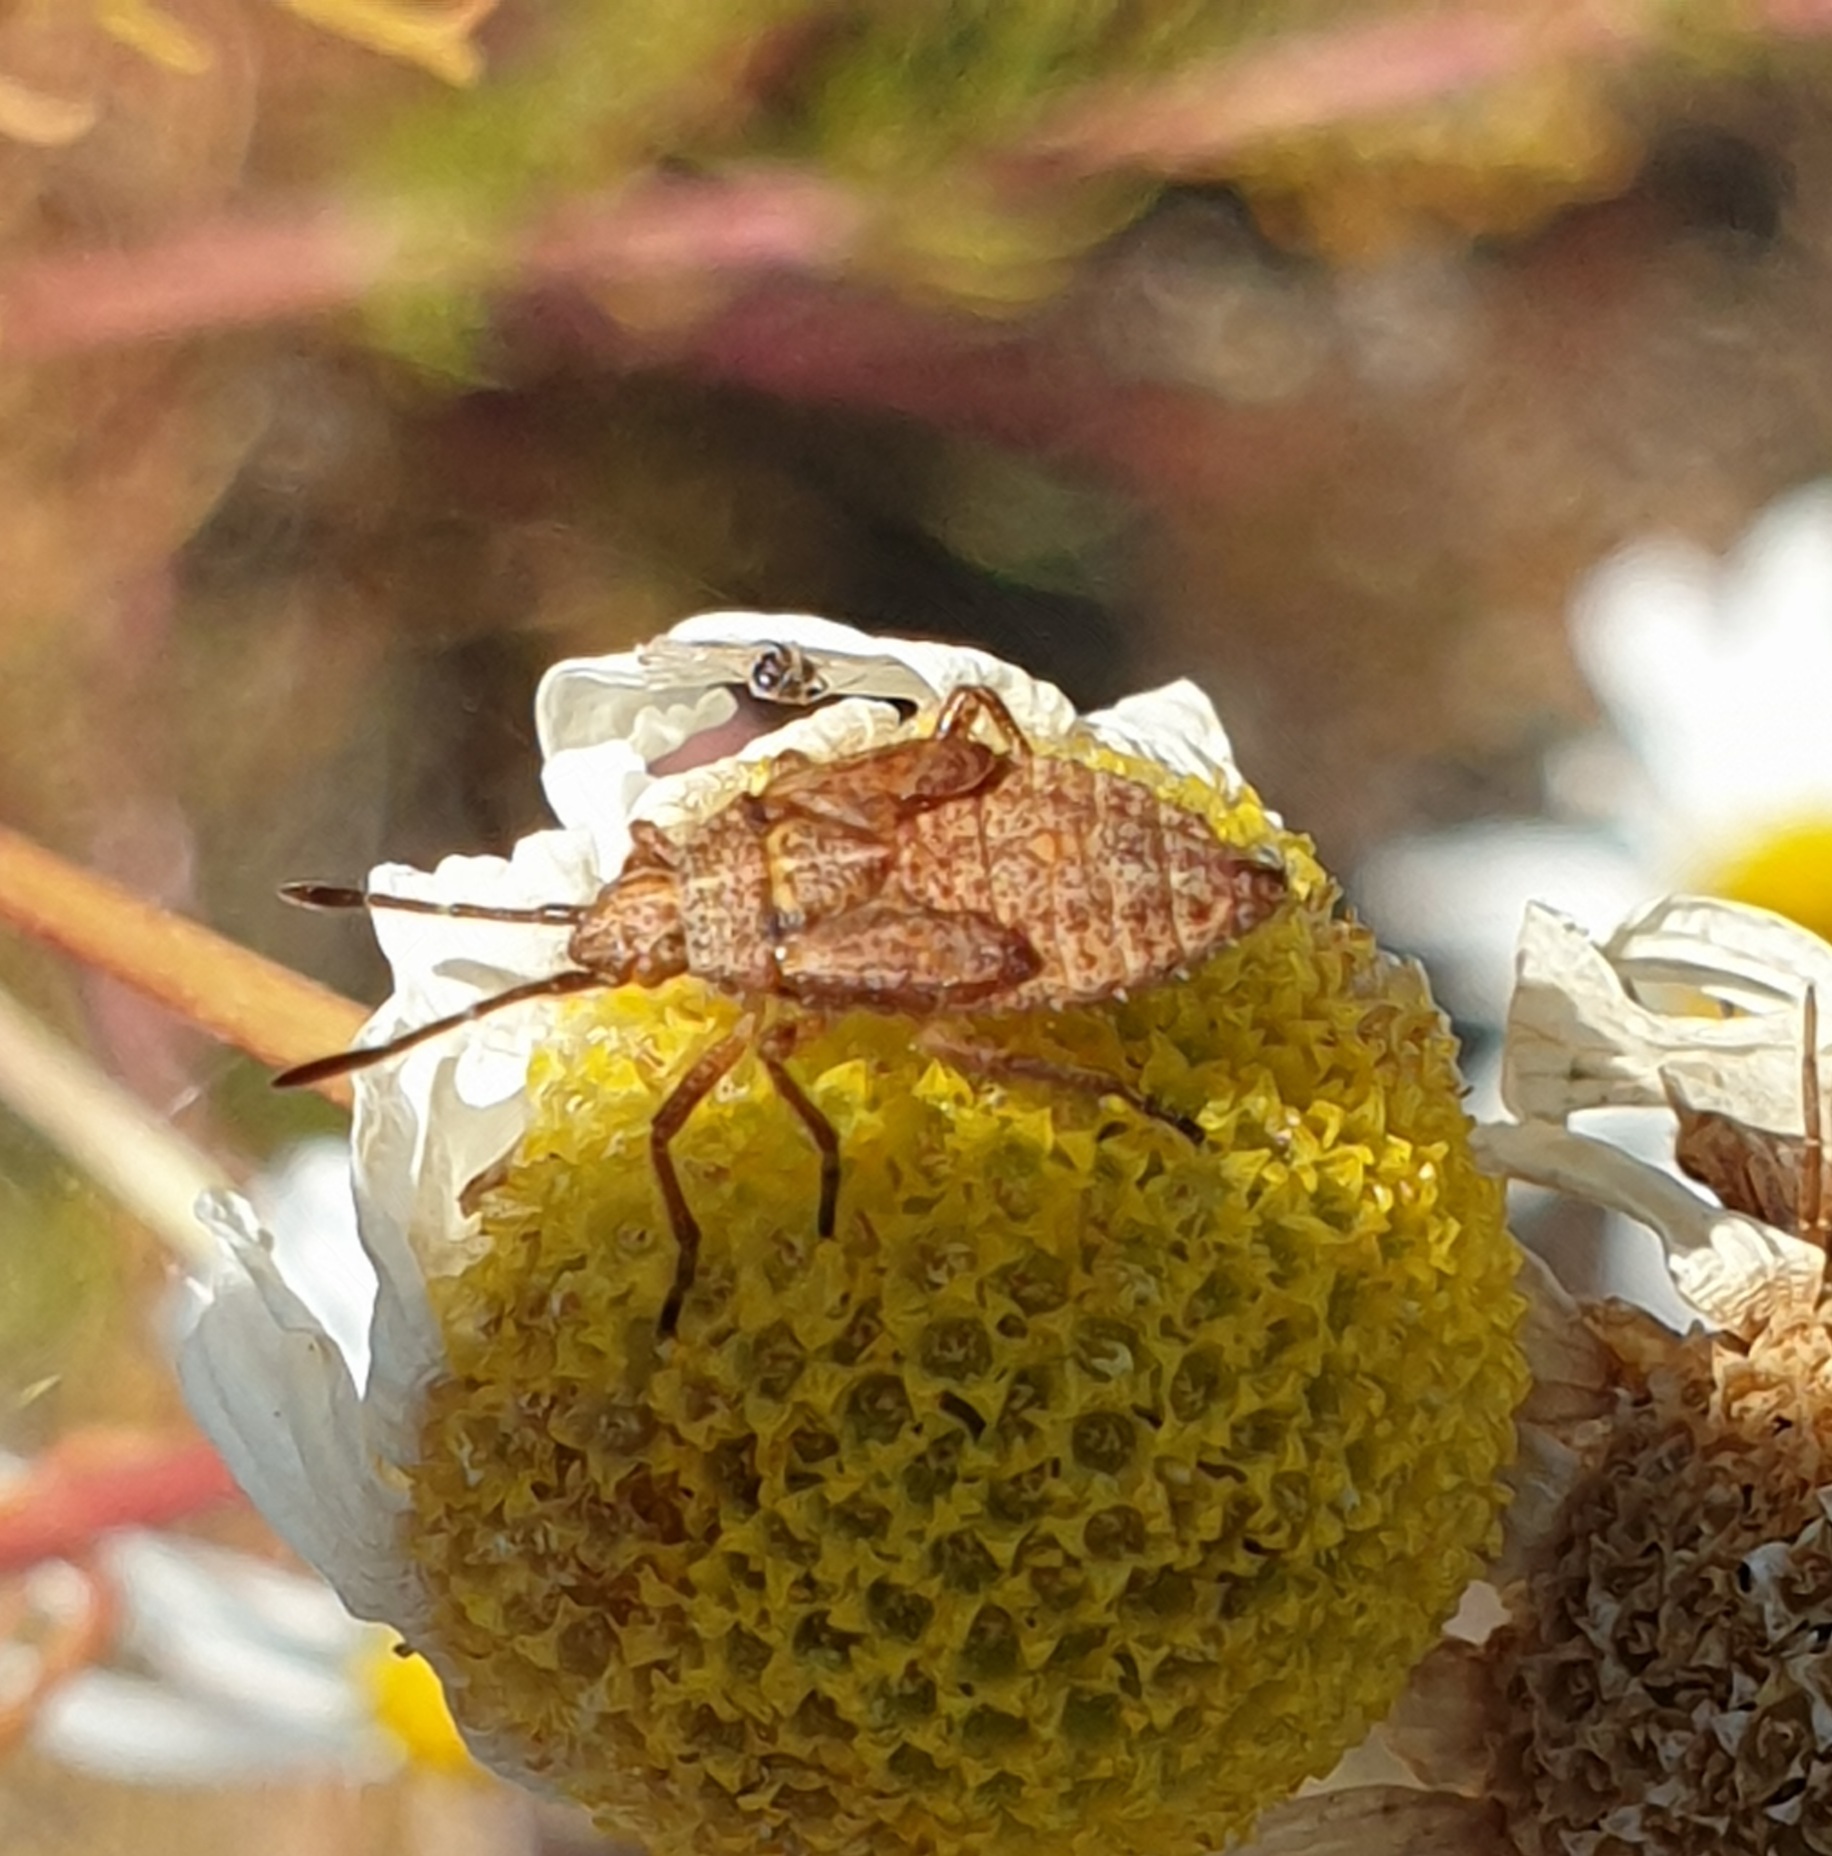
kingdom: Animalia
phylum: Arthropoda
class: Insecta
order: Hemiptera
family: Rhopalidae
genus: Corizus
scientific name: Corizus hyoscyami
